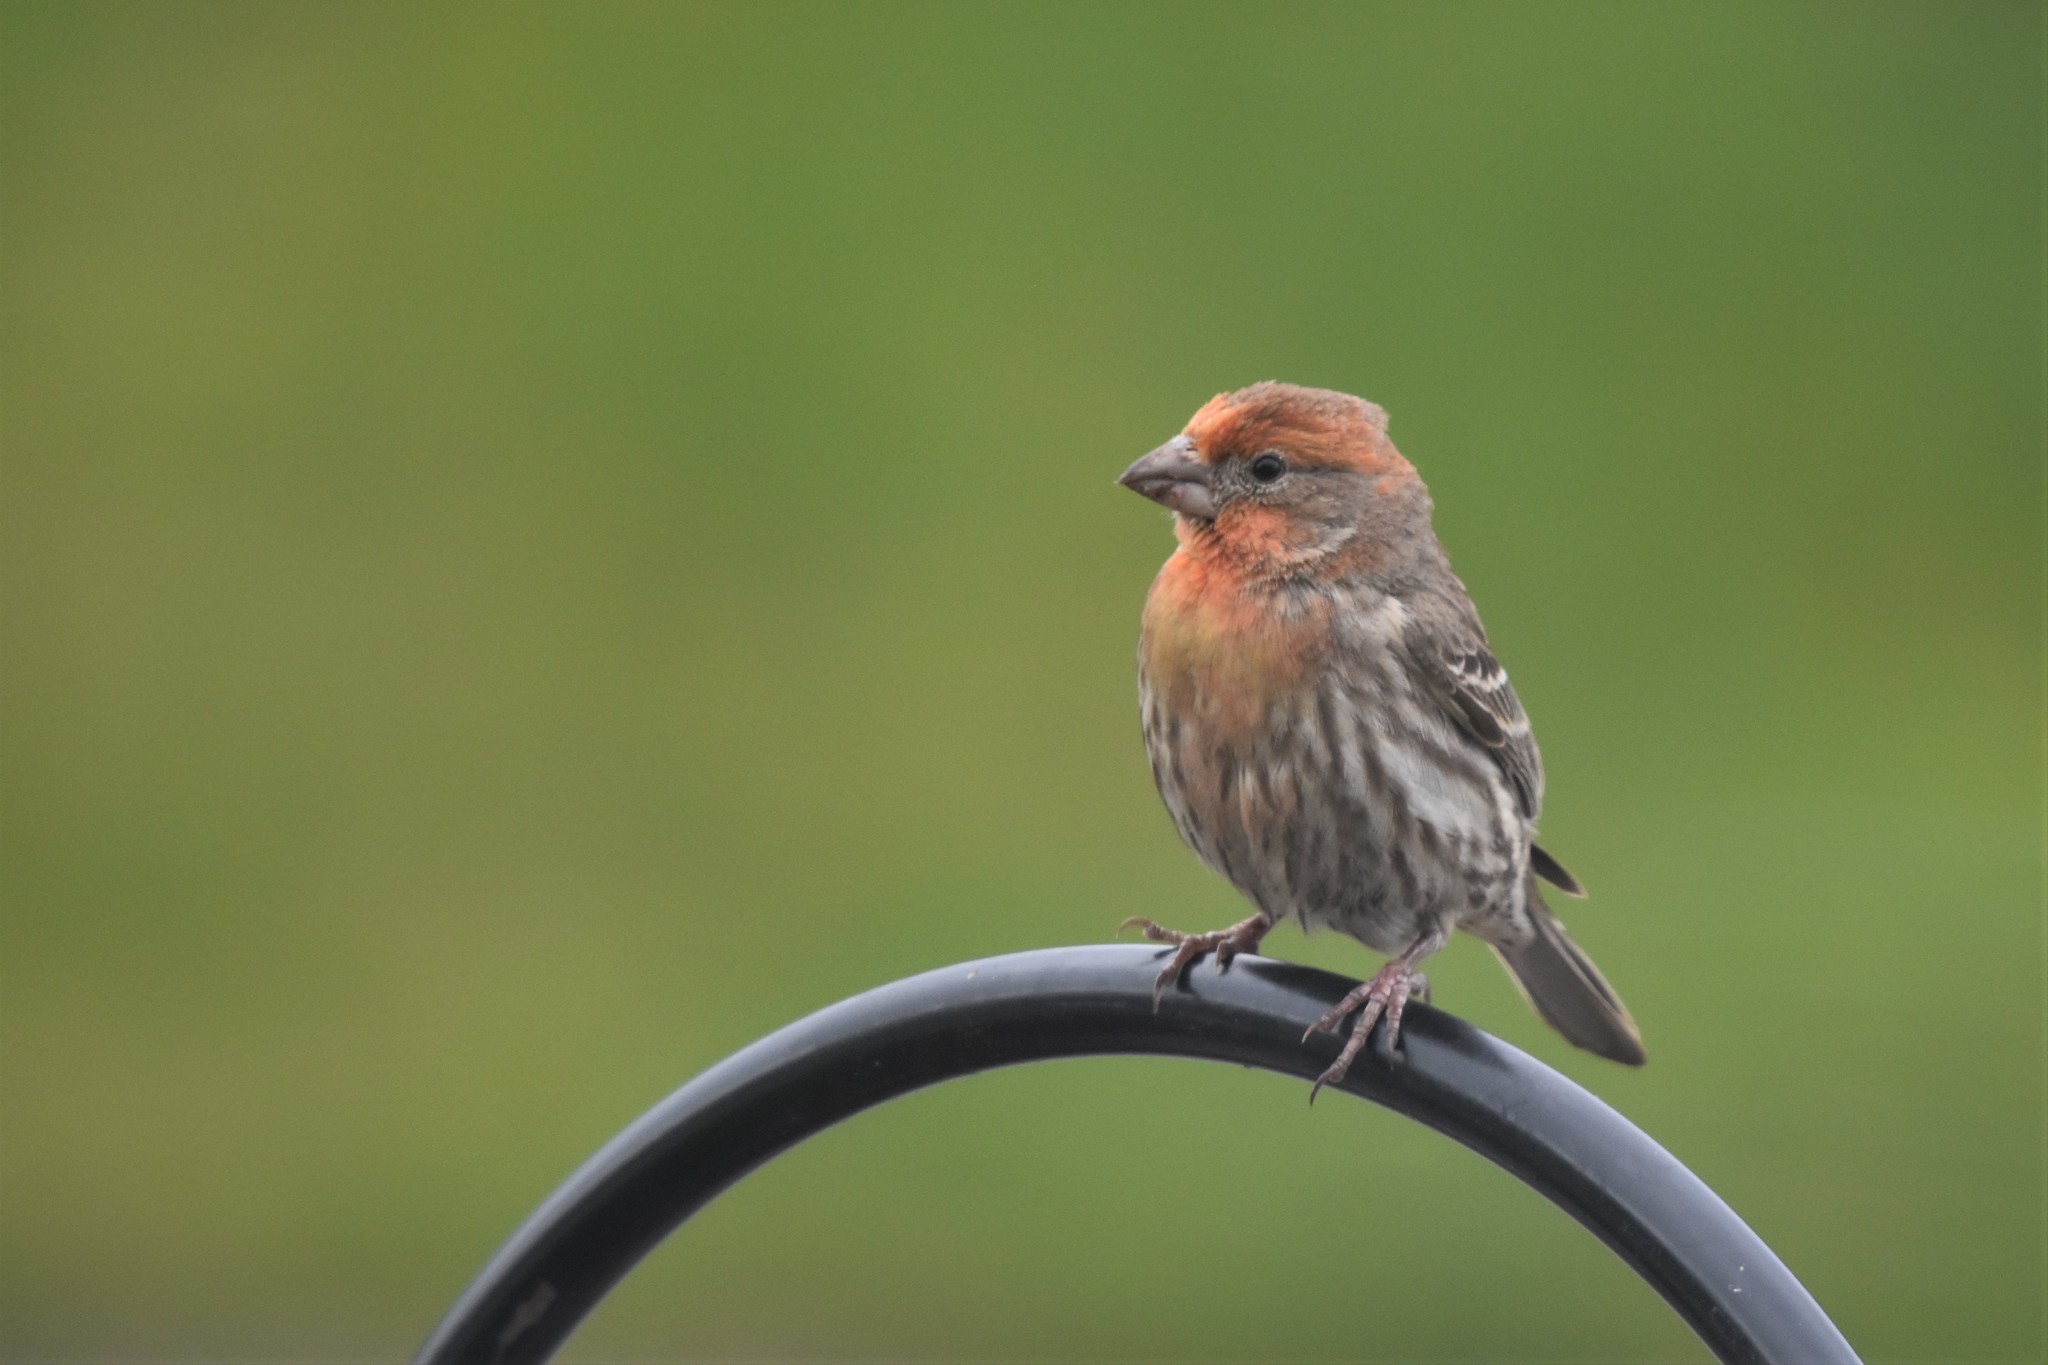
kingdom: Animalia
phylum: Chordata
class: Aves
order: Passeriformes
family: Fringillidae
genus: Haemorhous
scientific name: Haemorhous mexicanus
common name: House finch
